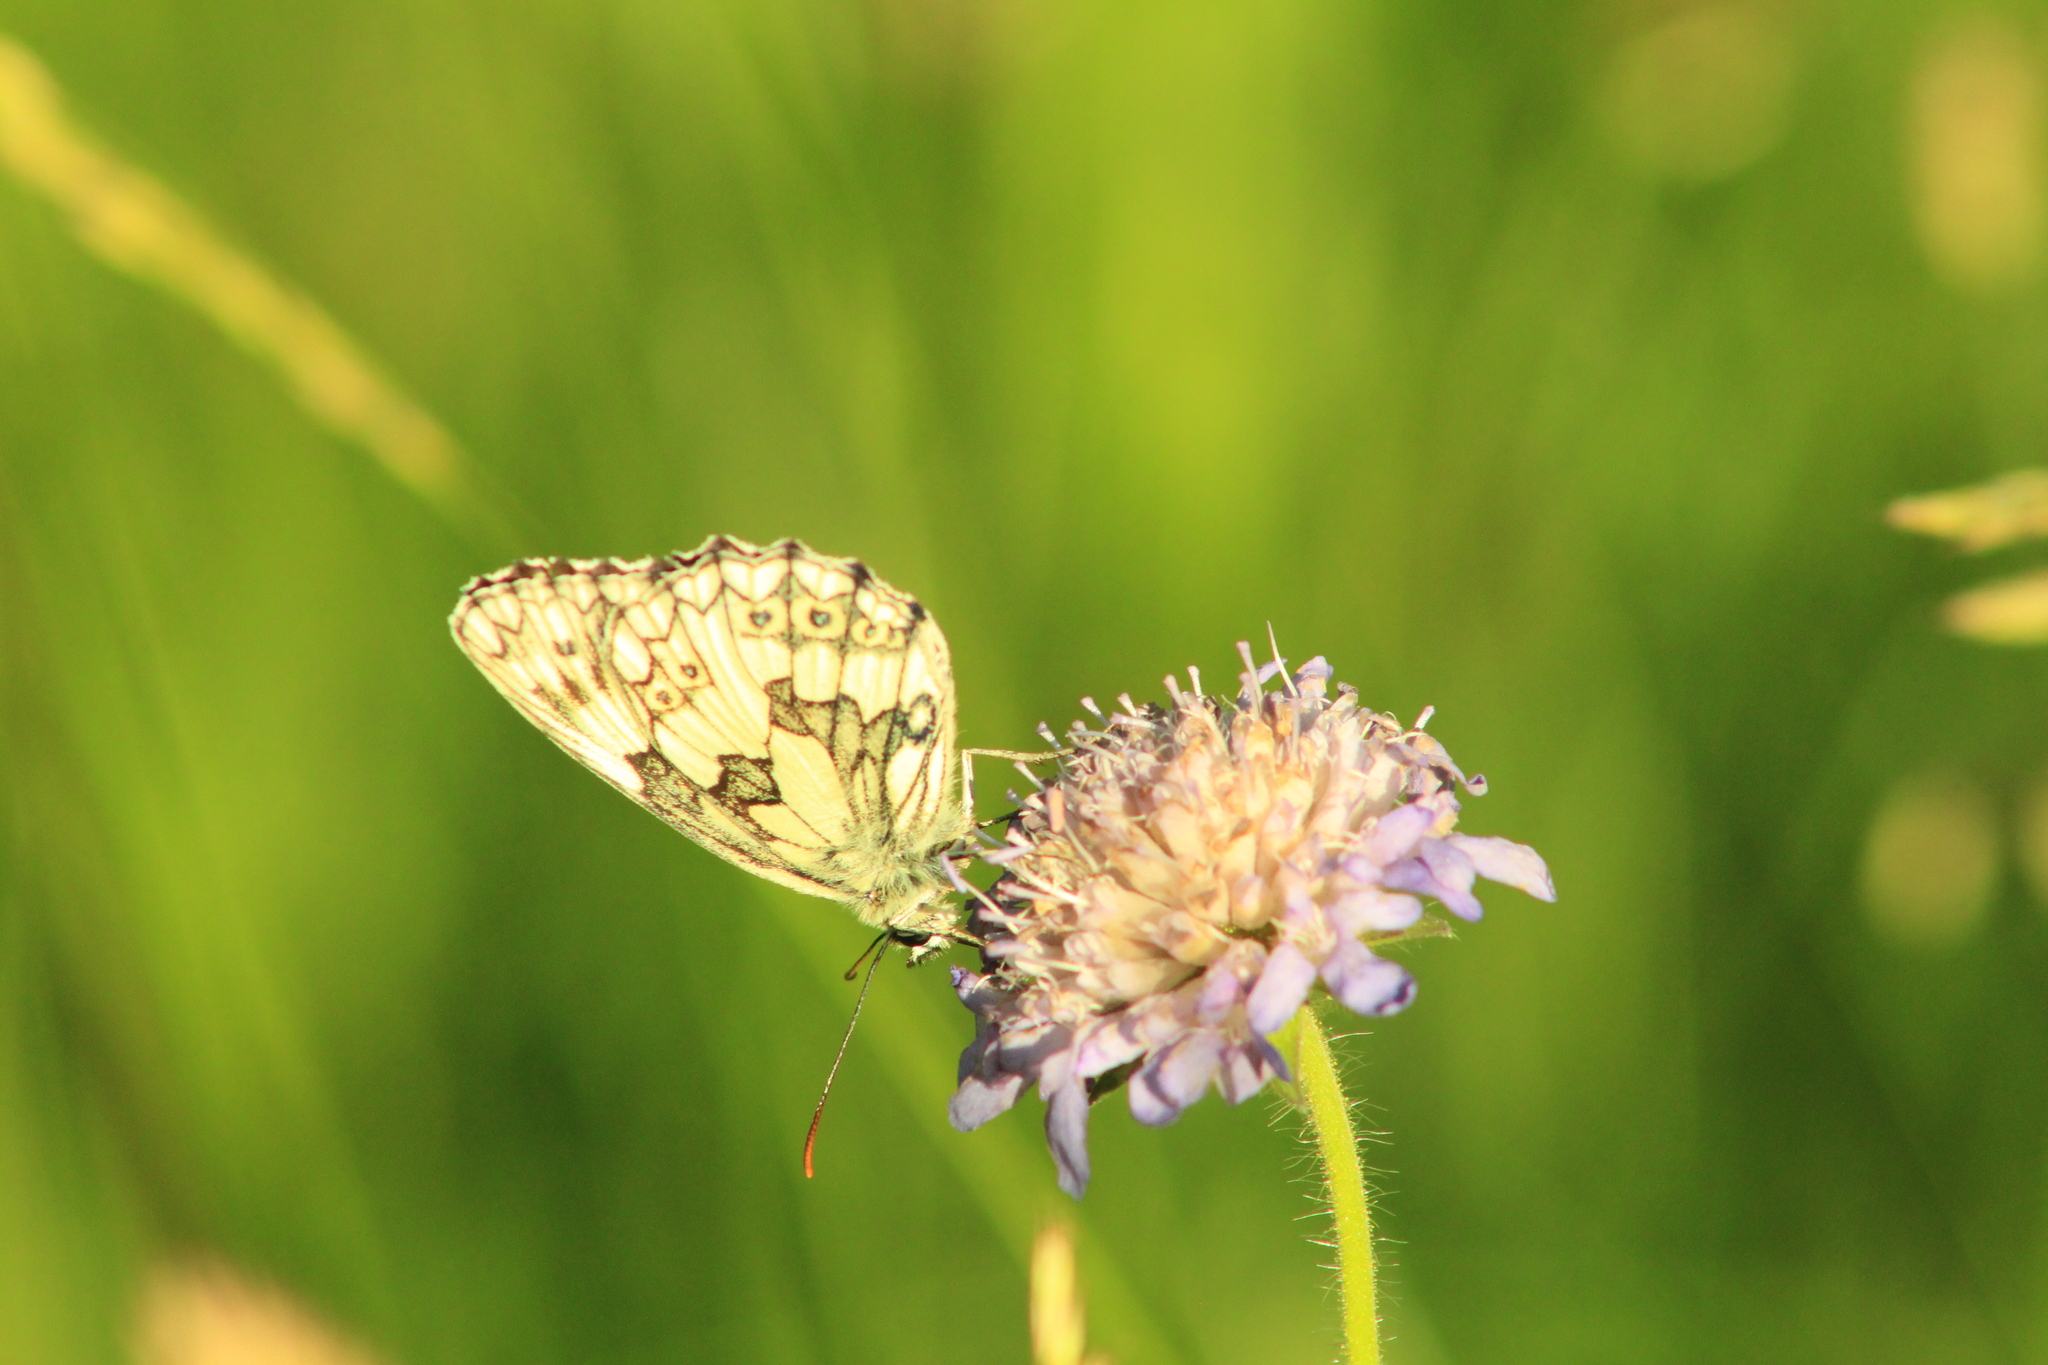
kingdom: Animalia
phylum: Arthropoda
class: Insecta
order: Lepidoptera
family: Nymphalidae
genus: Melanargia
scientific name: Melanargia galathea
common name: Marbled white
